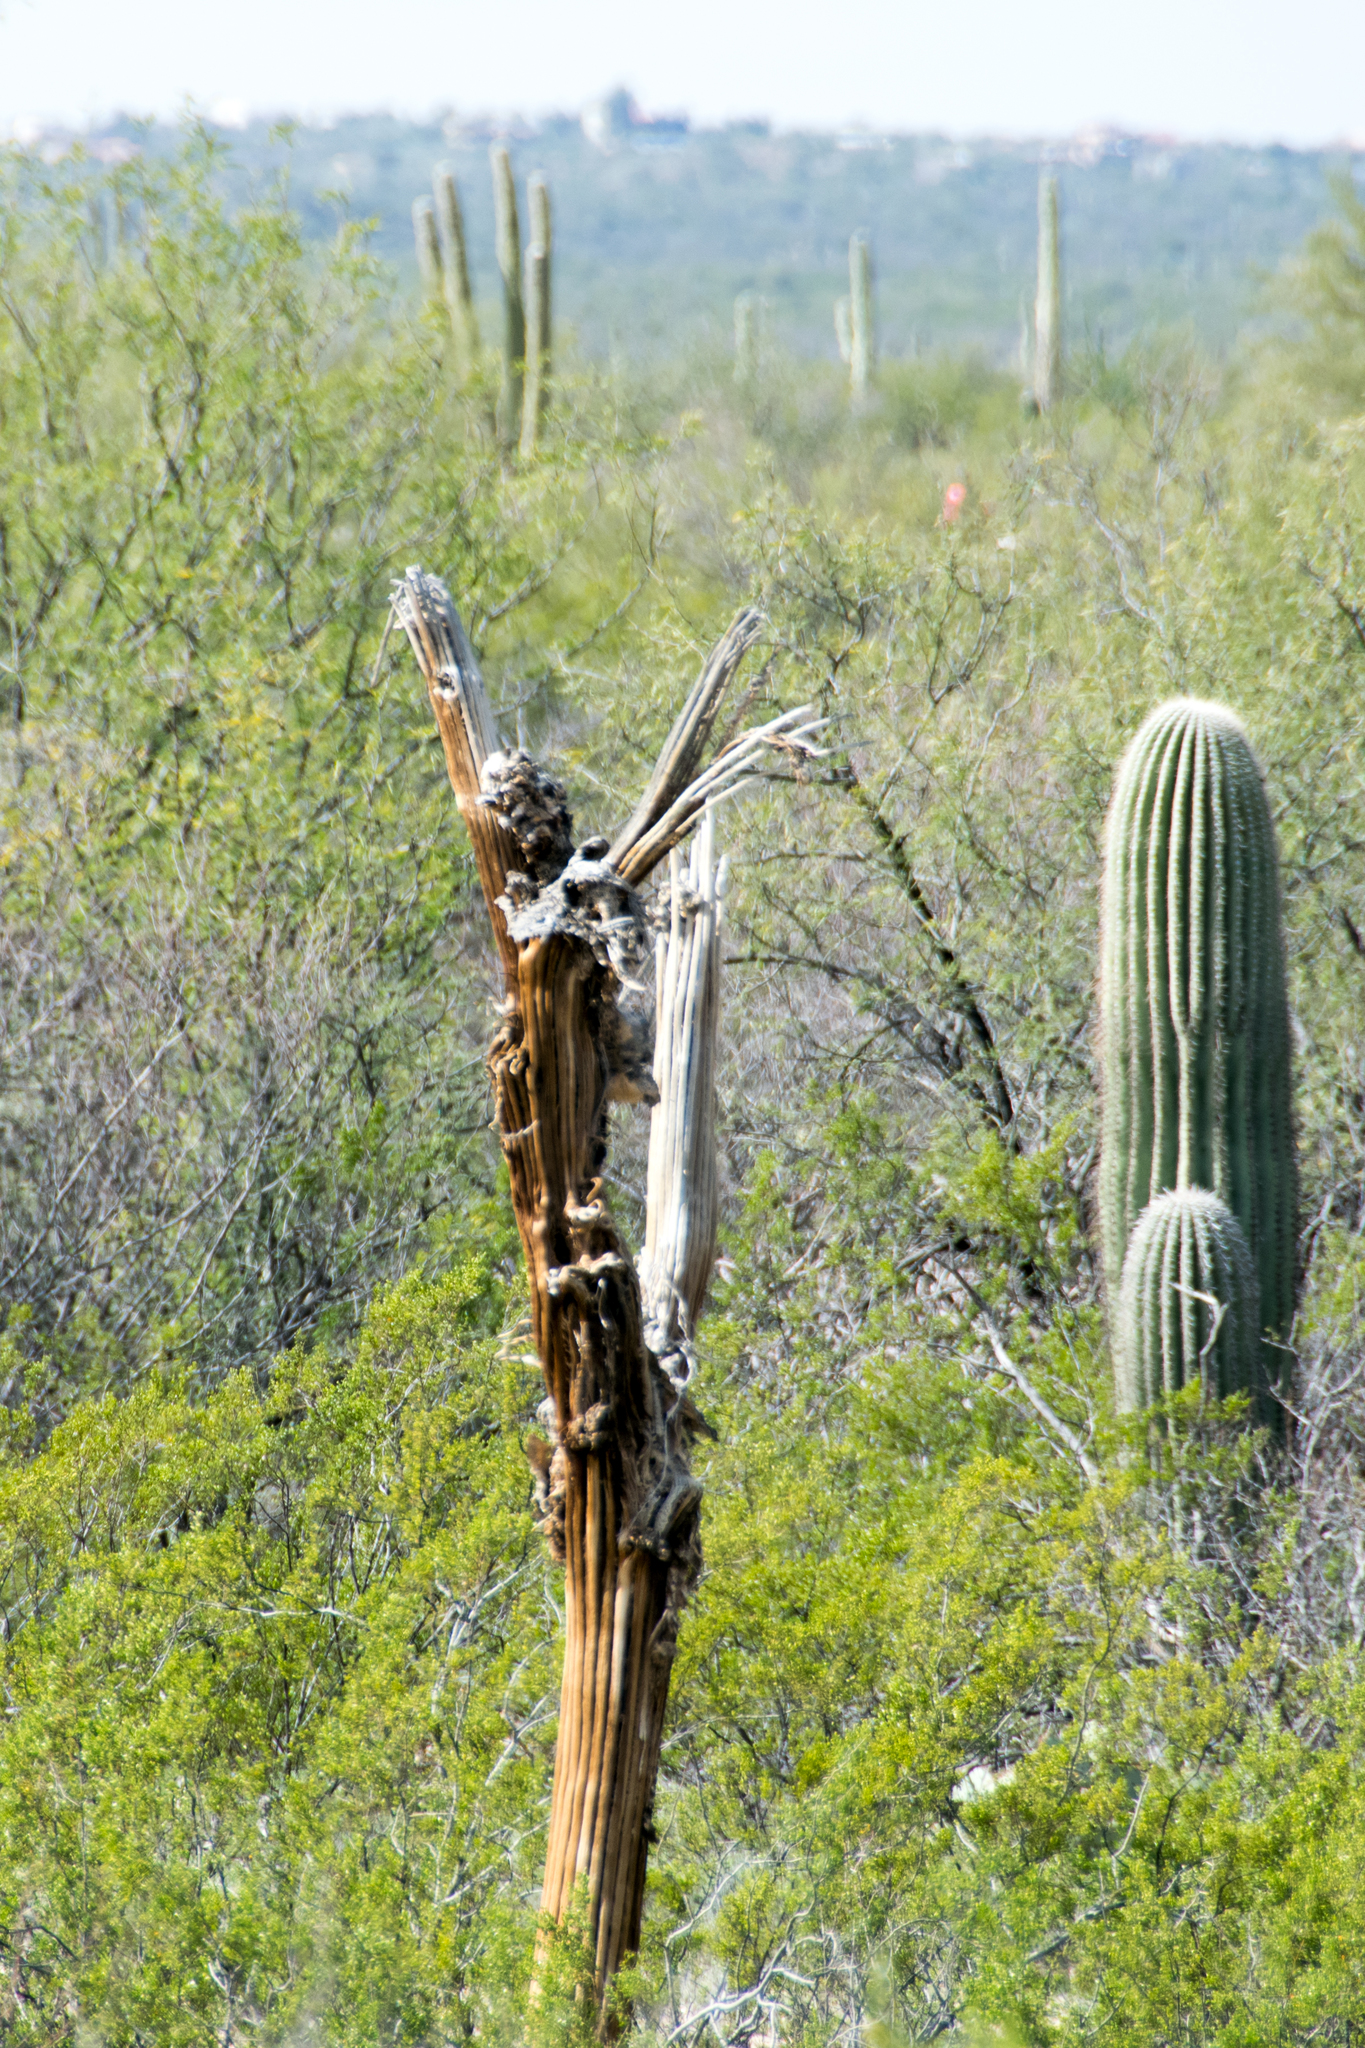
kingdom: Plantae
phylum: Tracheophyta
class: Magnoliopsida
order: Caryophyllales
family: Cactaceae
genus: Carnegiea
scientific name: Carnegiea gigantea
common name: Saguaro
